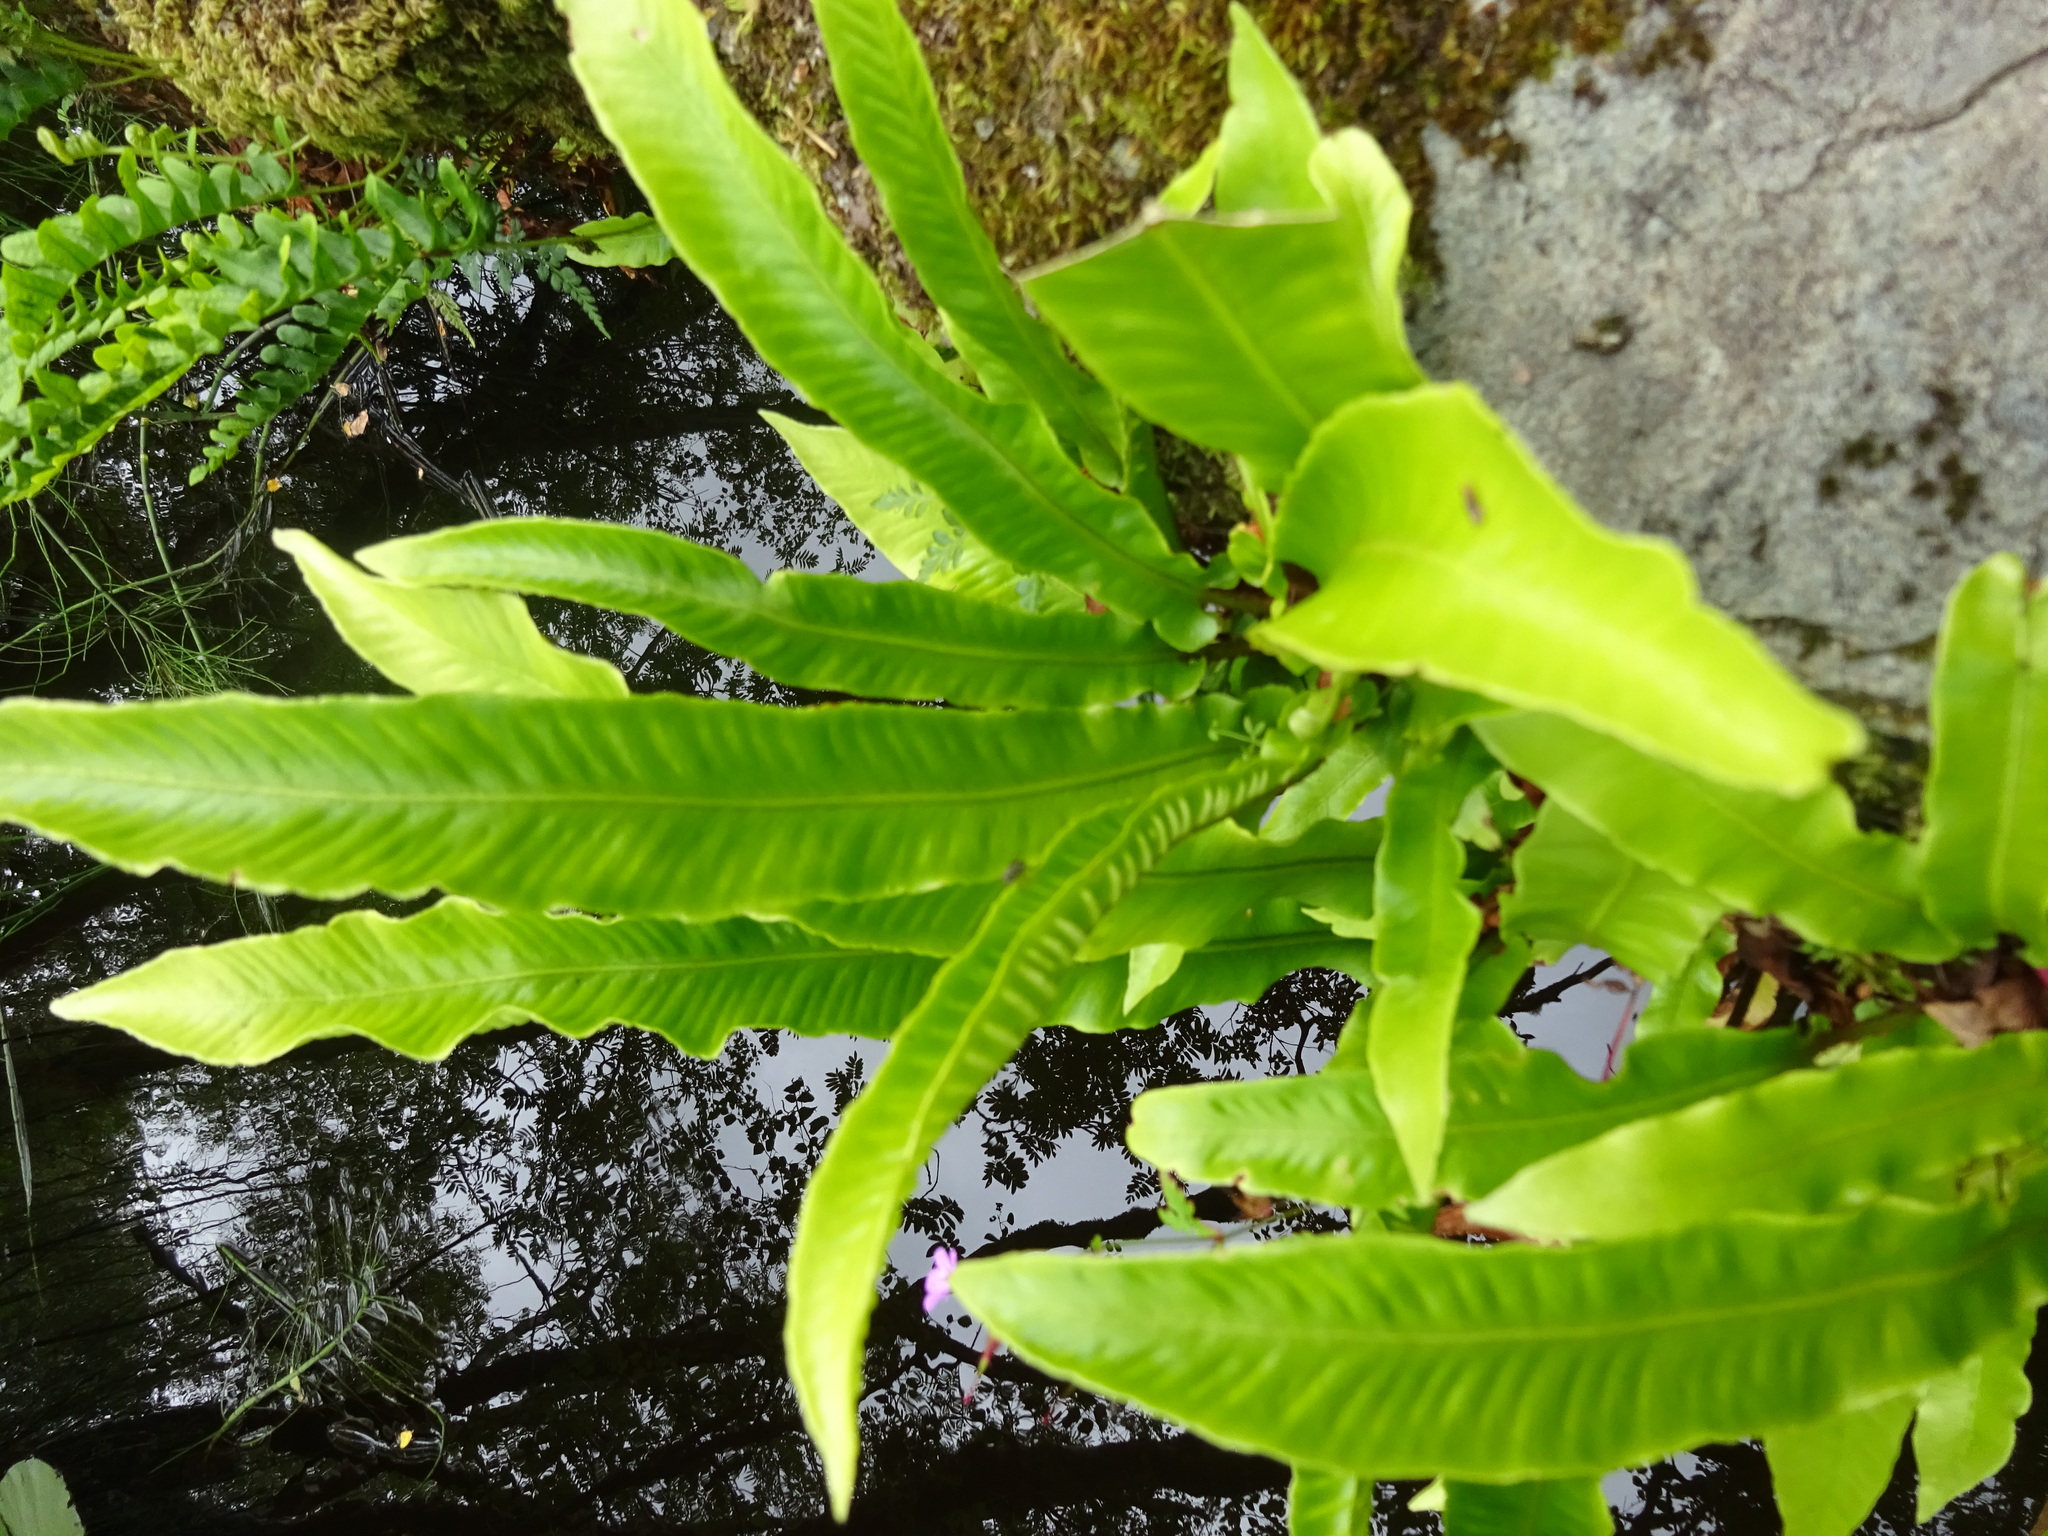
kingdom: Plantae
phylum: Tracheophyta
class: Polypodiopsida
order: Polypodiales
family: Aspleniaceae
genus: Asplenium
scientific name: Asplenium scolopendrium
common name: Hart's-tongue fern
